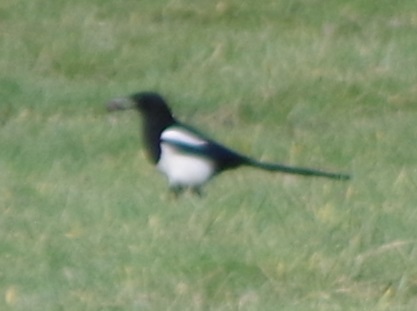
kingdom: Animalia
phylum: Chordata
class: Aves
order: Passeriformes
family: Corvidae
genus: Pica
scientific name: Pica pica
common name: Eurasian magpie
